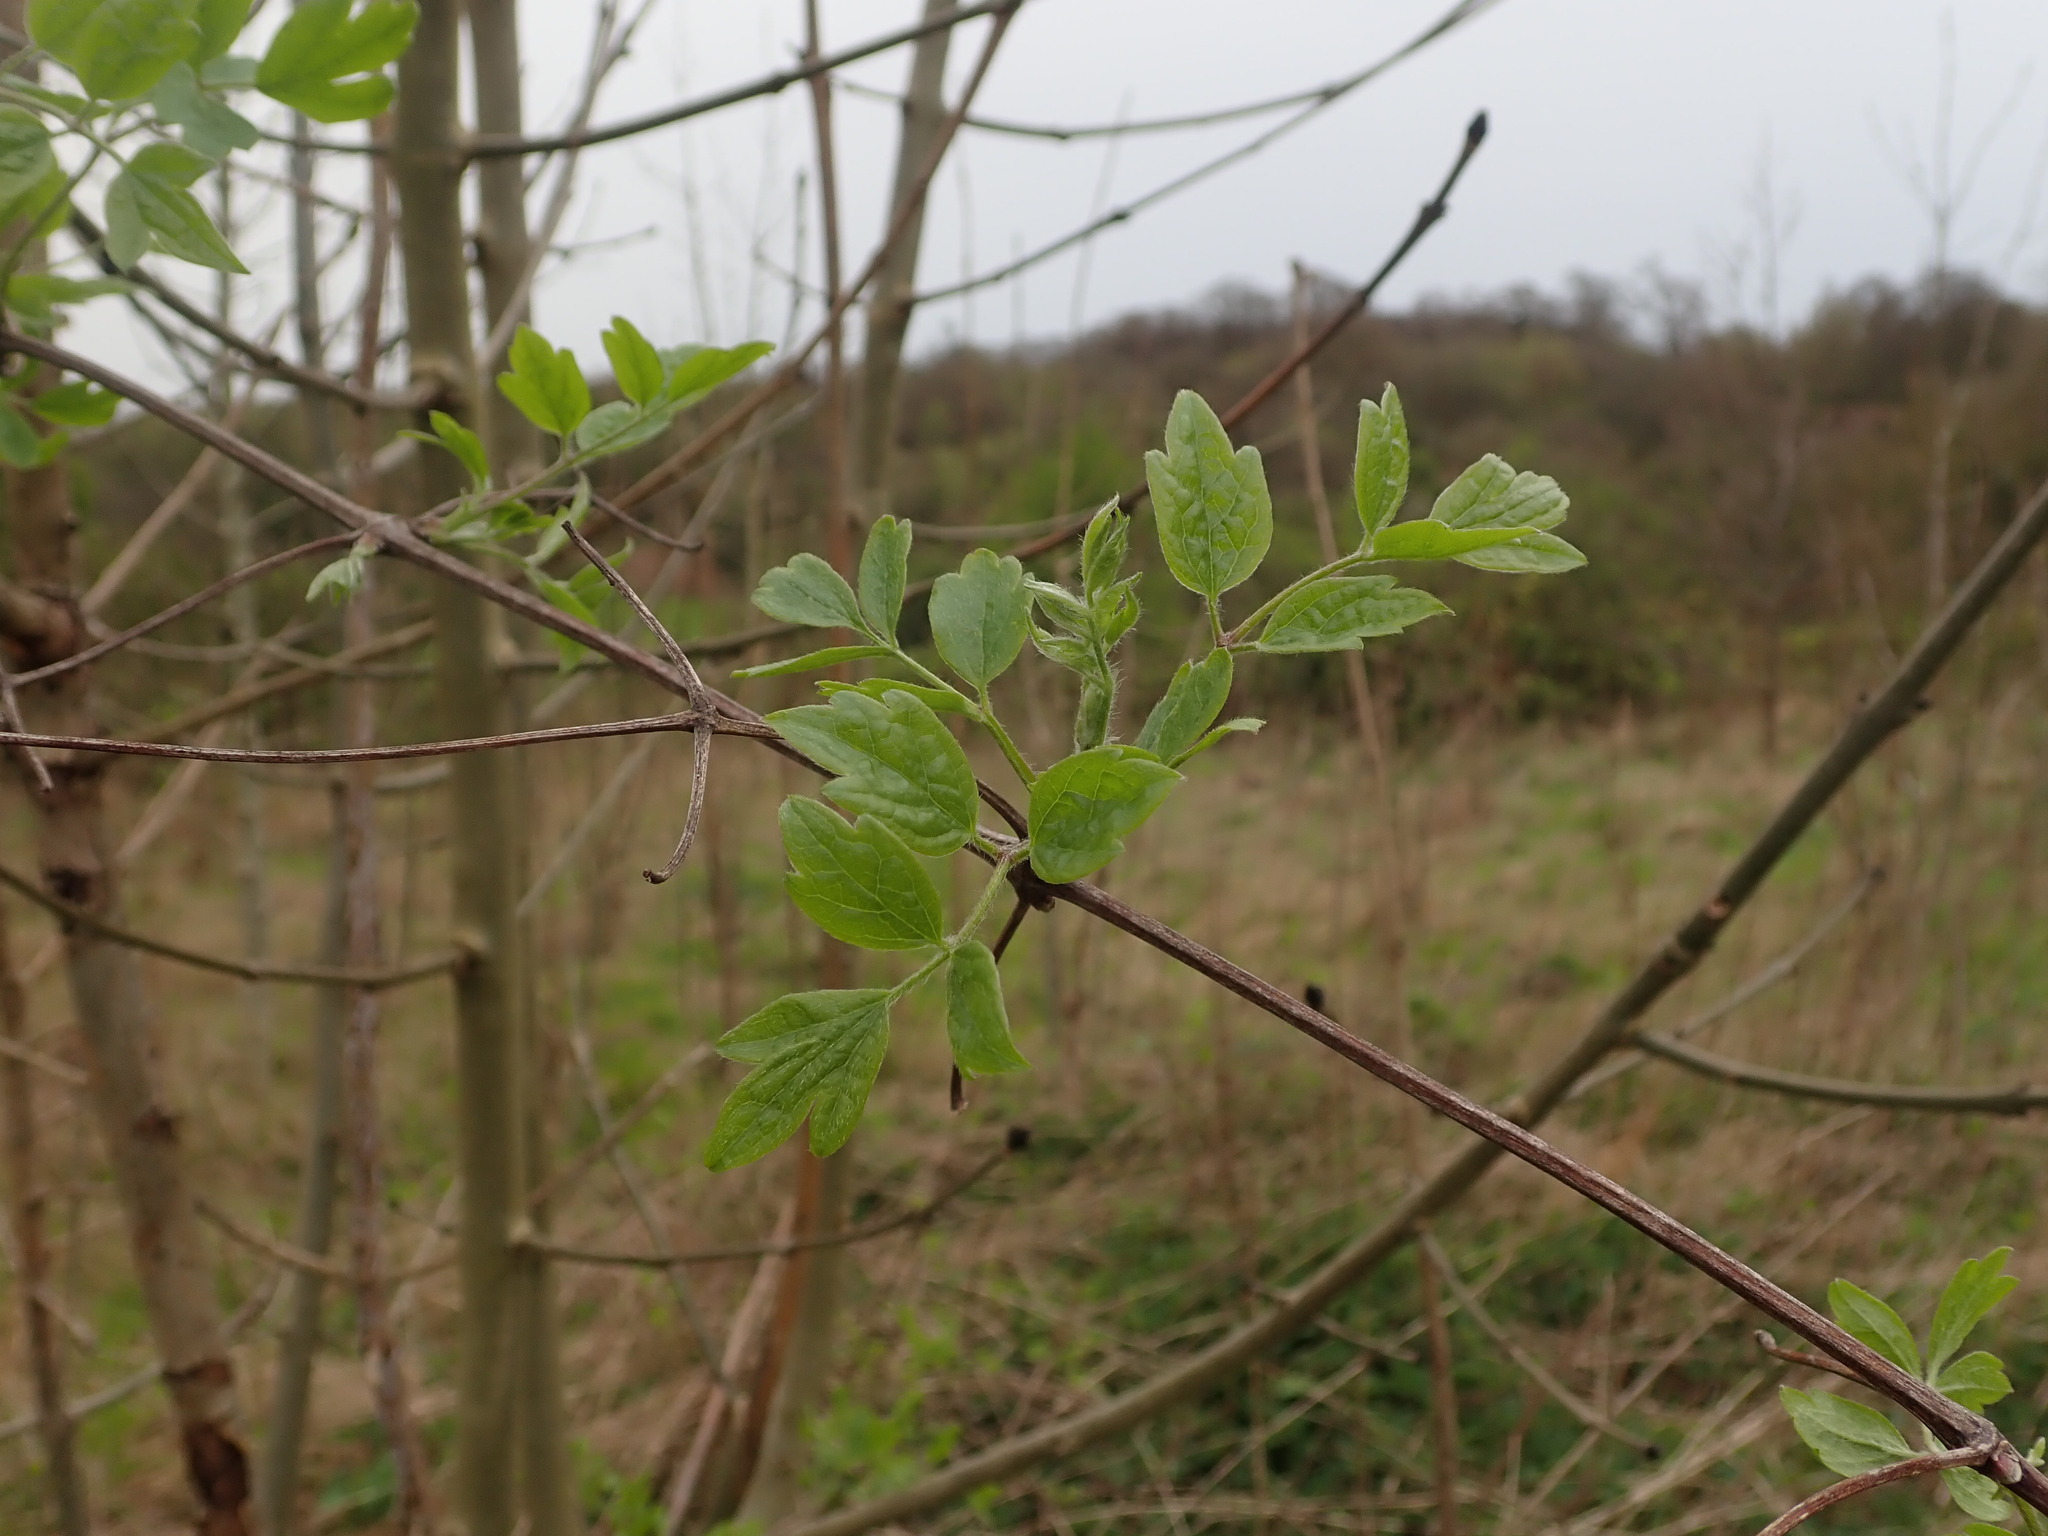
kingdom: Plantae
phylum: Tracheophyta
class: Magnoliopsida
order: Ranunculales
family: Ranunculaceae
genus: Clematis
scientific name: Clematis vitalba
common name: Evergreen clematis
